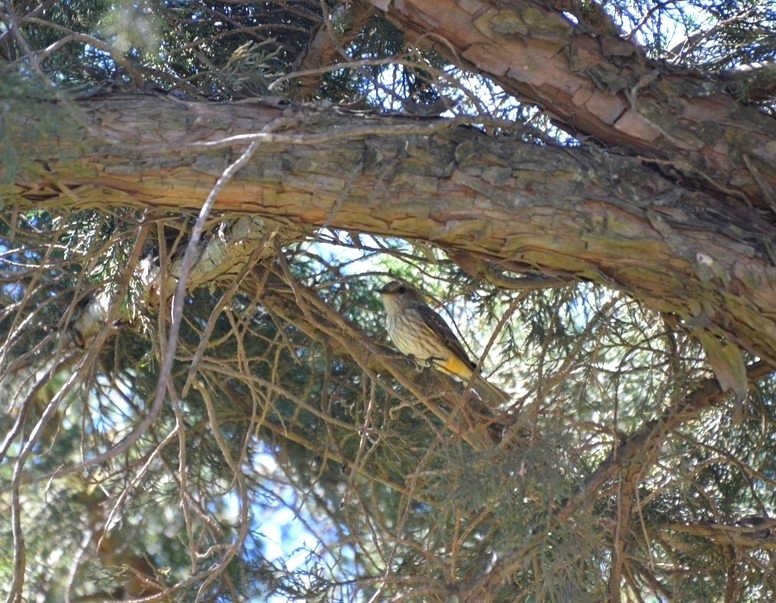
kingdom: Animalia
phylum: Chordata
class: Aves
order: Passeriformes
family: Tyrannidae
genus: Pyrocephalus
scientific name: Pyrocephalus rubinus
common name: Vermilion flycatcher
